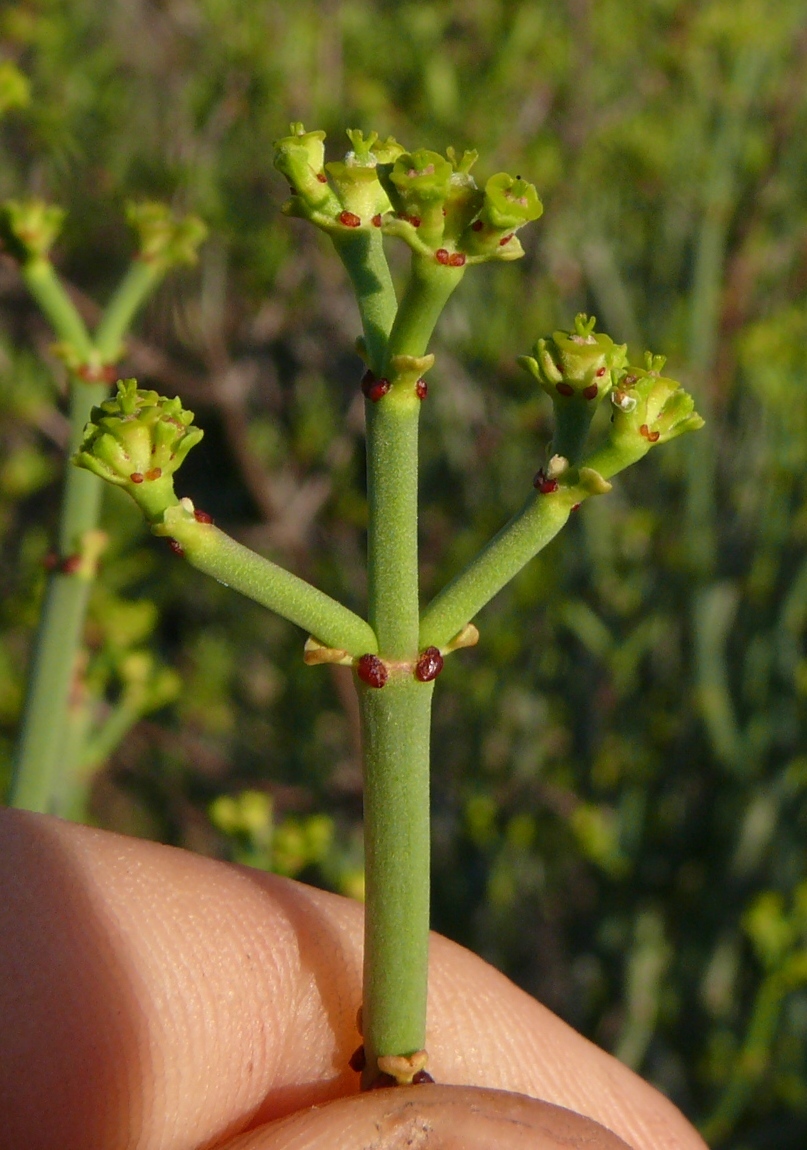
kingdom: Plantae
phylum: Tracheophyta
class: Magnoliopsida
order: Malpighiales
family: Euphorbiaceae
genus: Euphorbia
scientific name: Euphorbia burmanni
